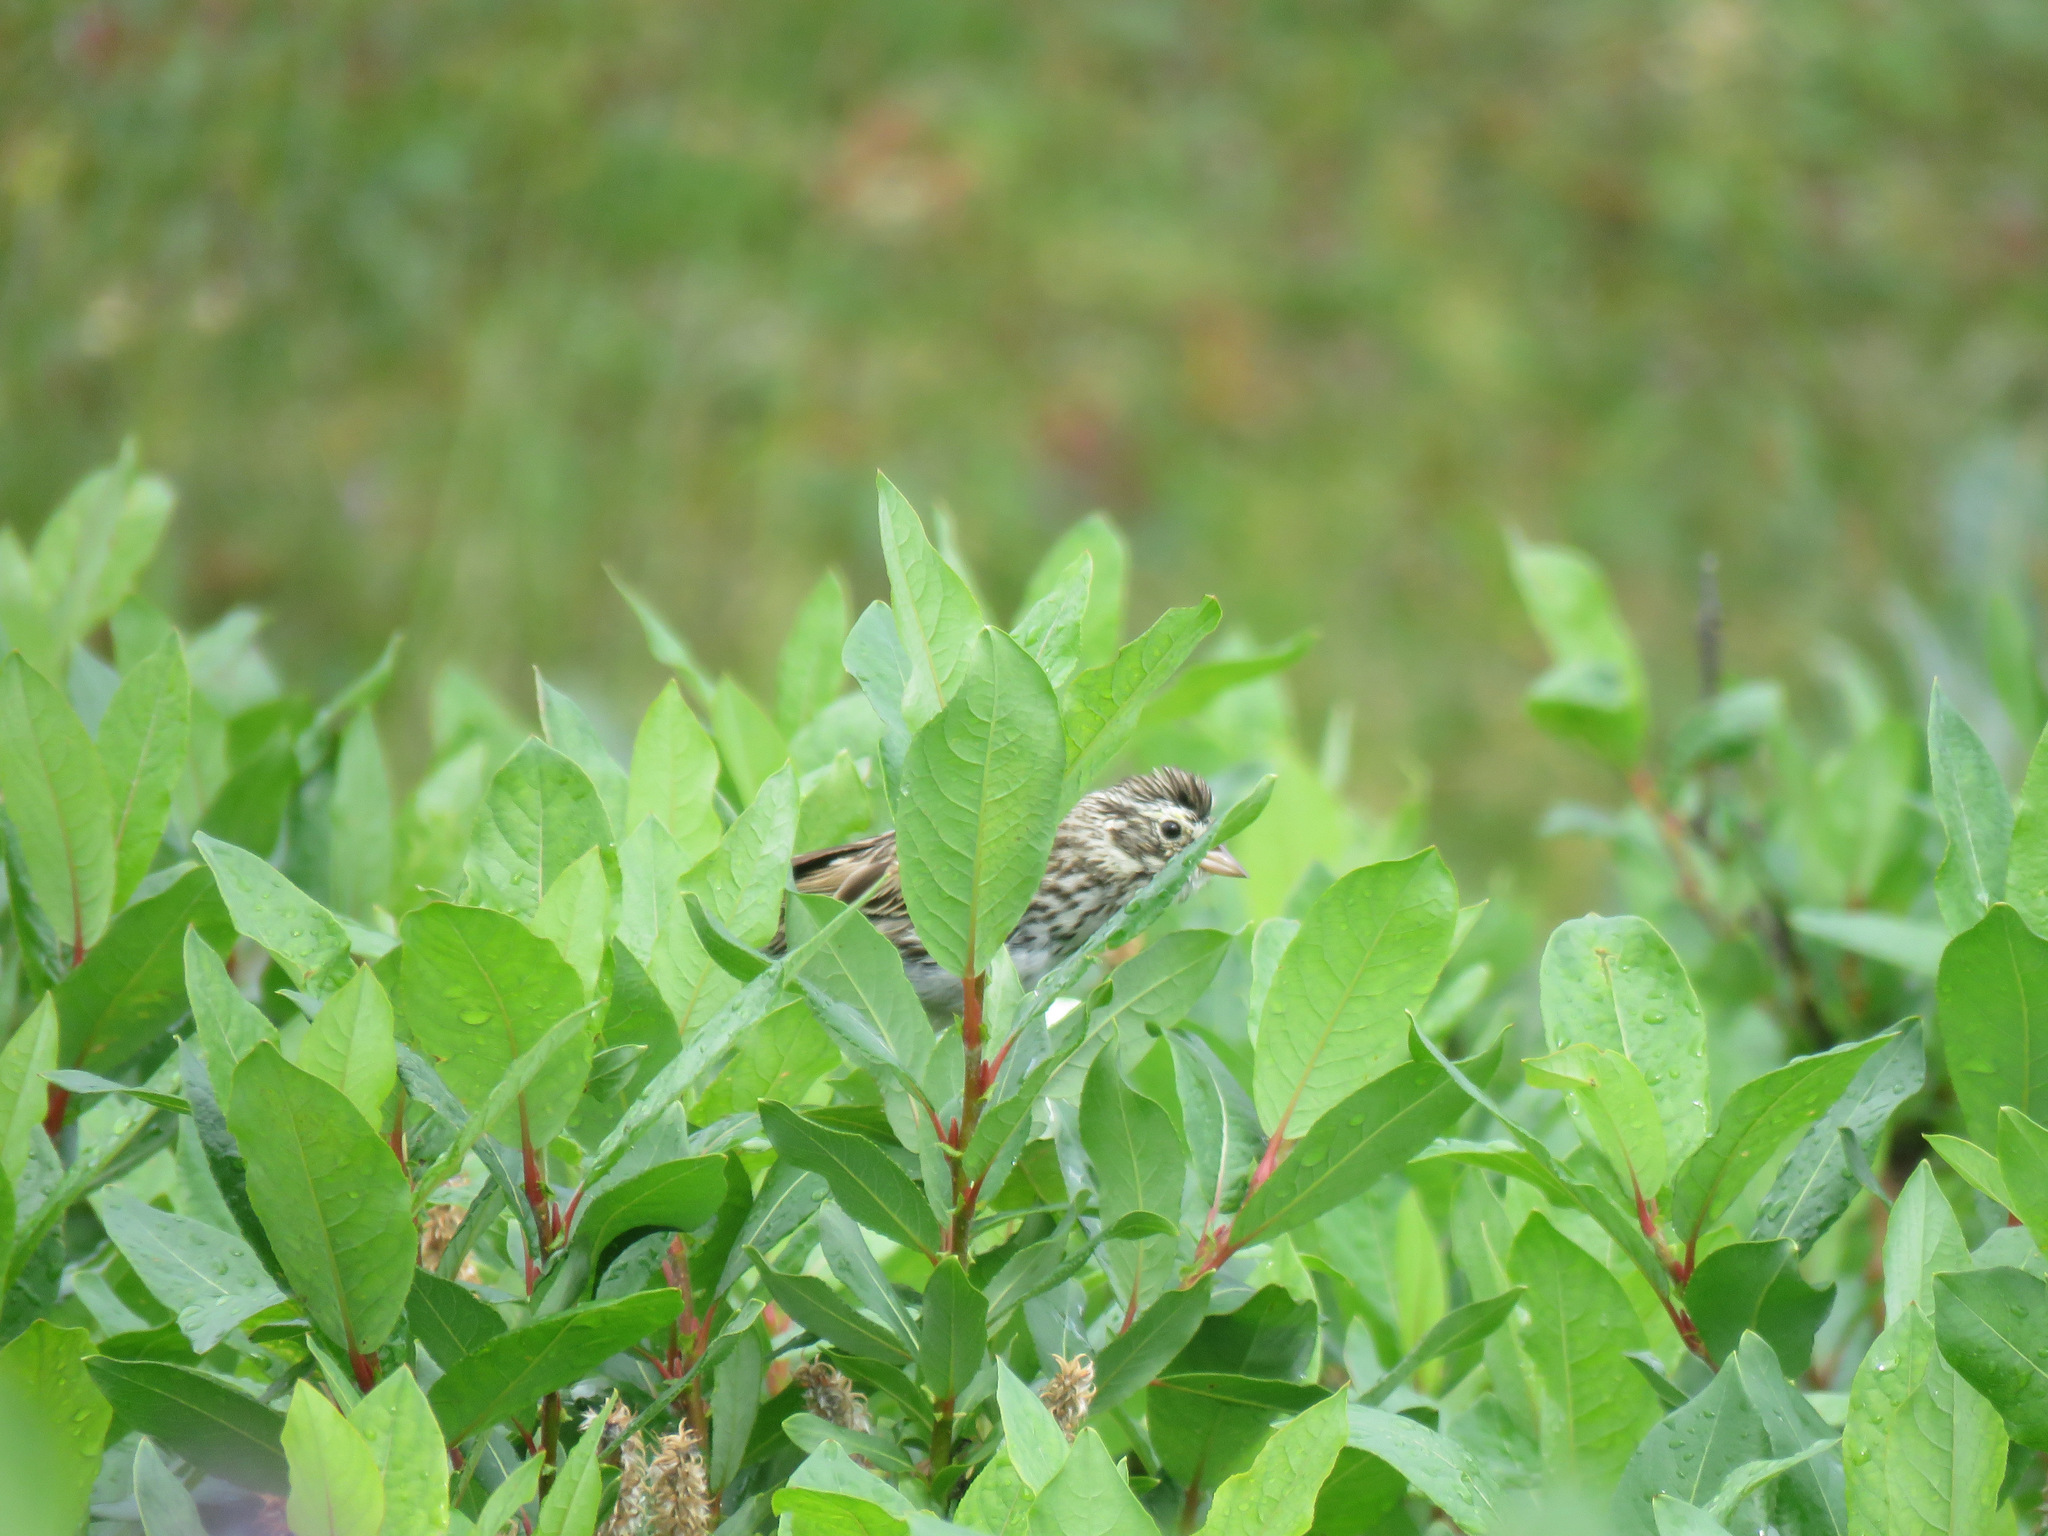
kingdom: Animalia
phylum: Chordata
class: Aves
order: Passeriformes
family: Passerellidae
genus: Passerculus
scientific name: Passerculus sandwichensis
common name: Savannah sparrow
